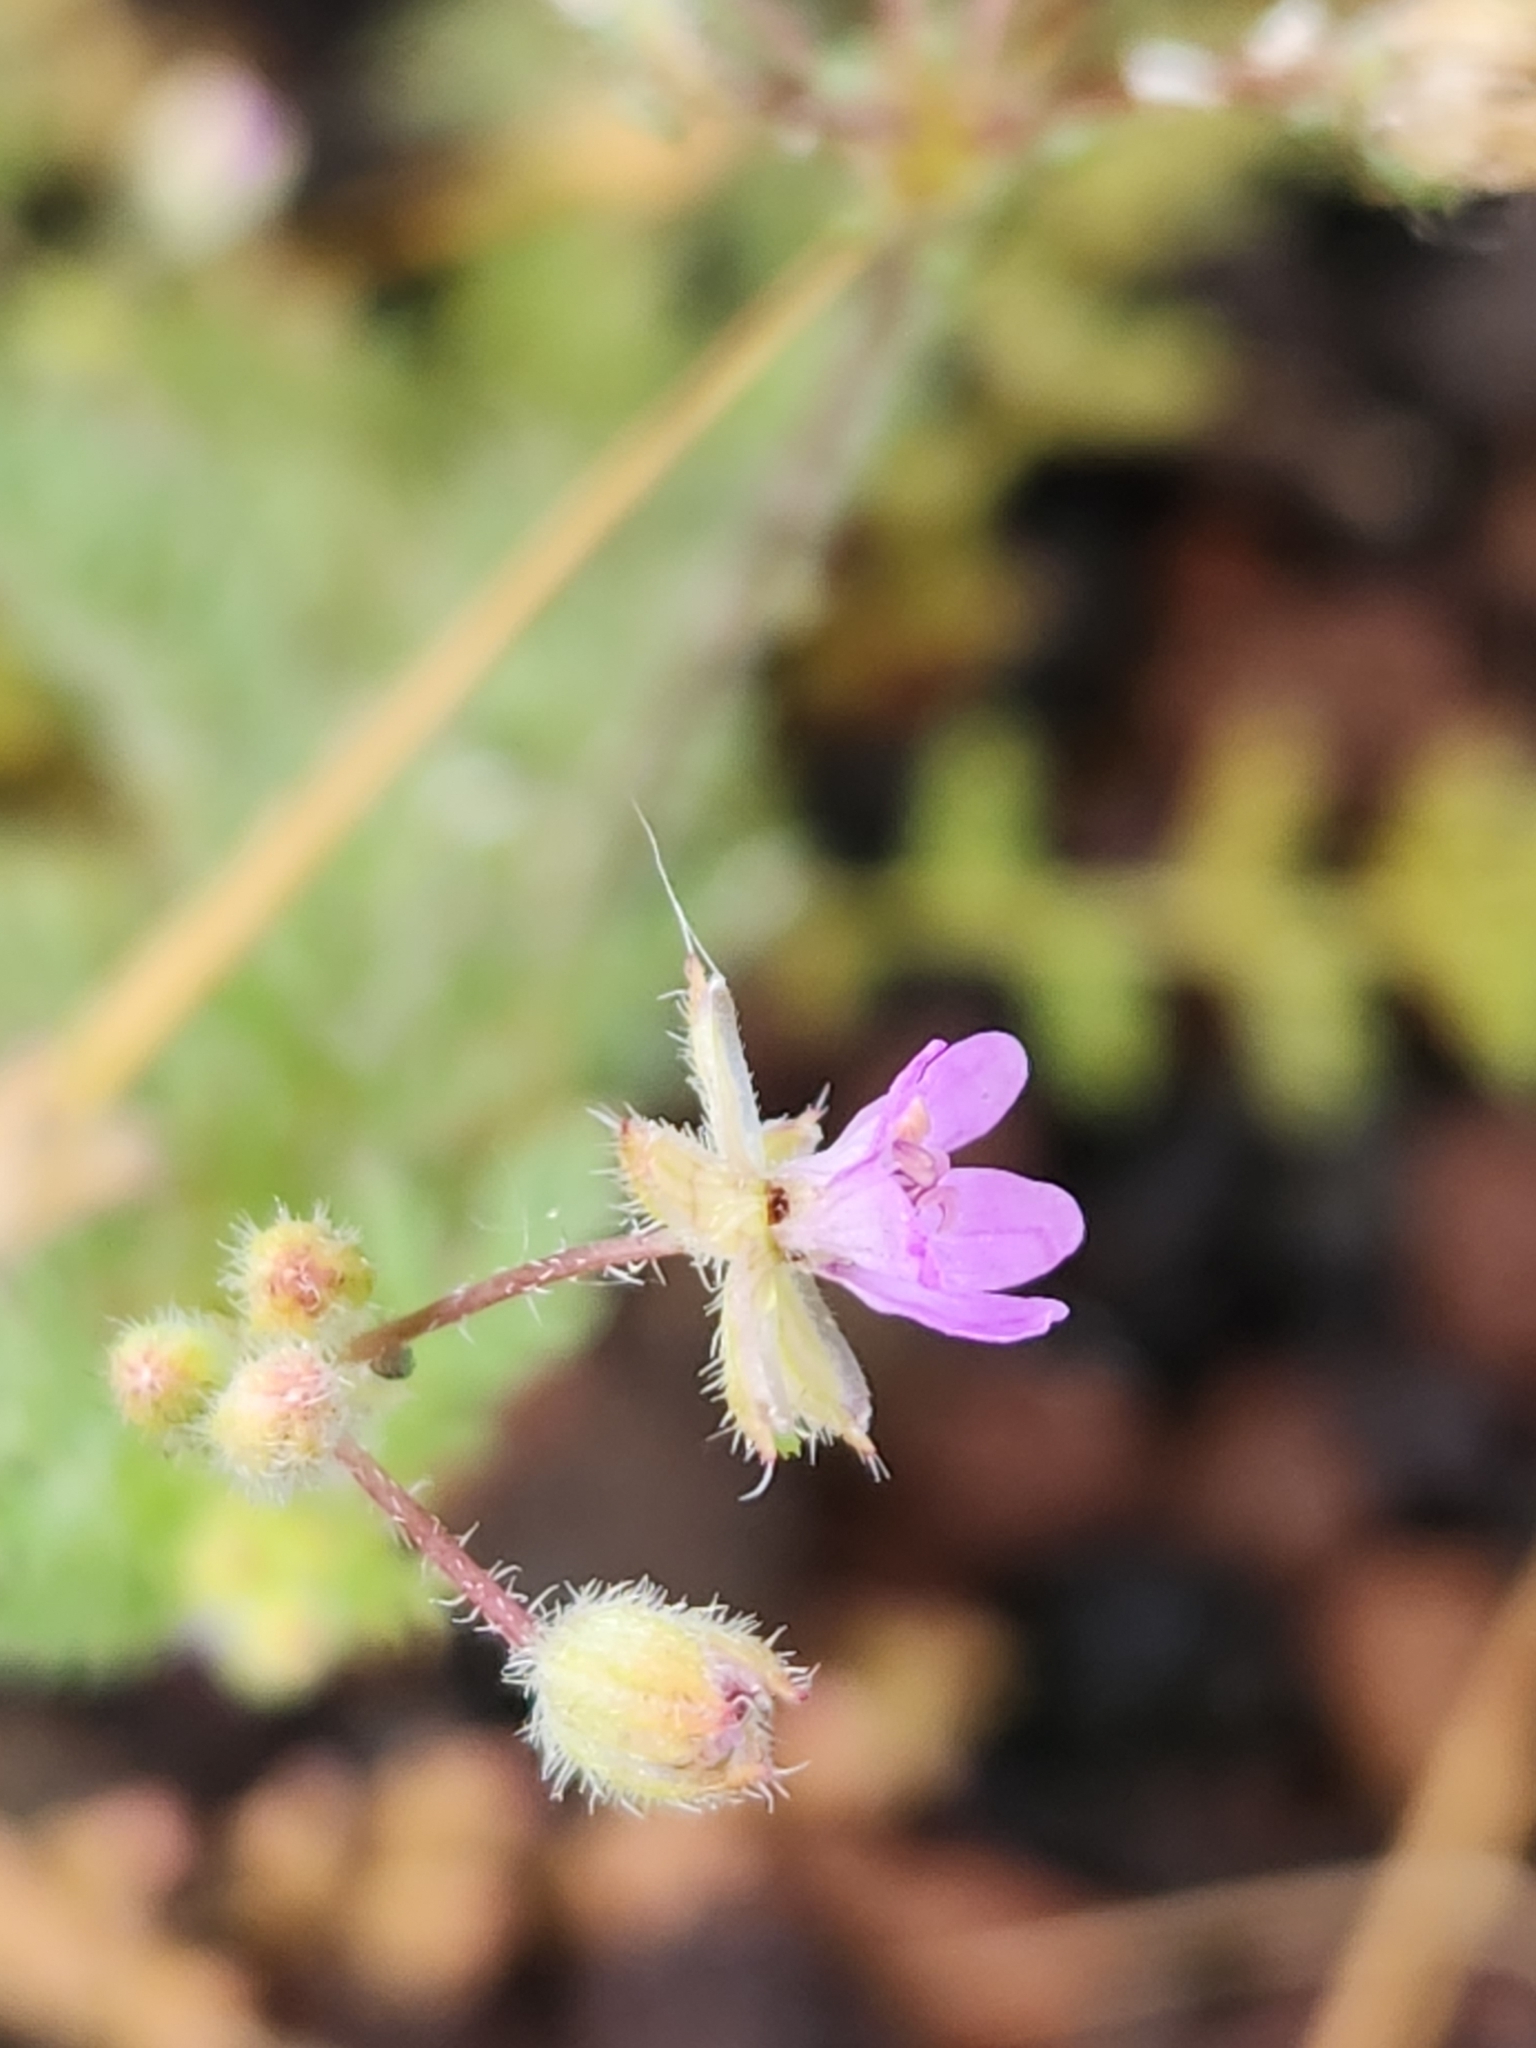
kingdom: Plantae
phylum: Tracheophyta
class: Magnoliopsida
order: Geraniales
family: Geraniaceae
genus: Erodium
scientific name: Erodium cicutarium
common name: Common stork's-bill
